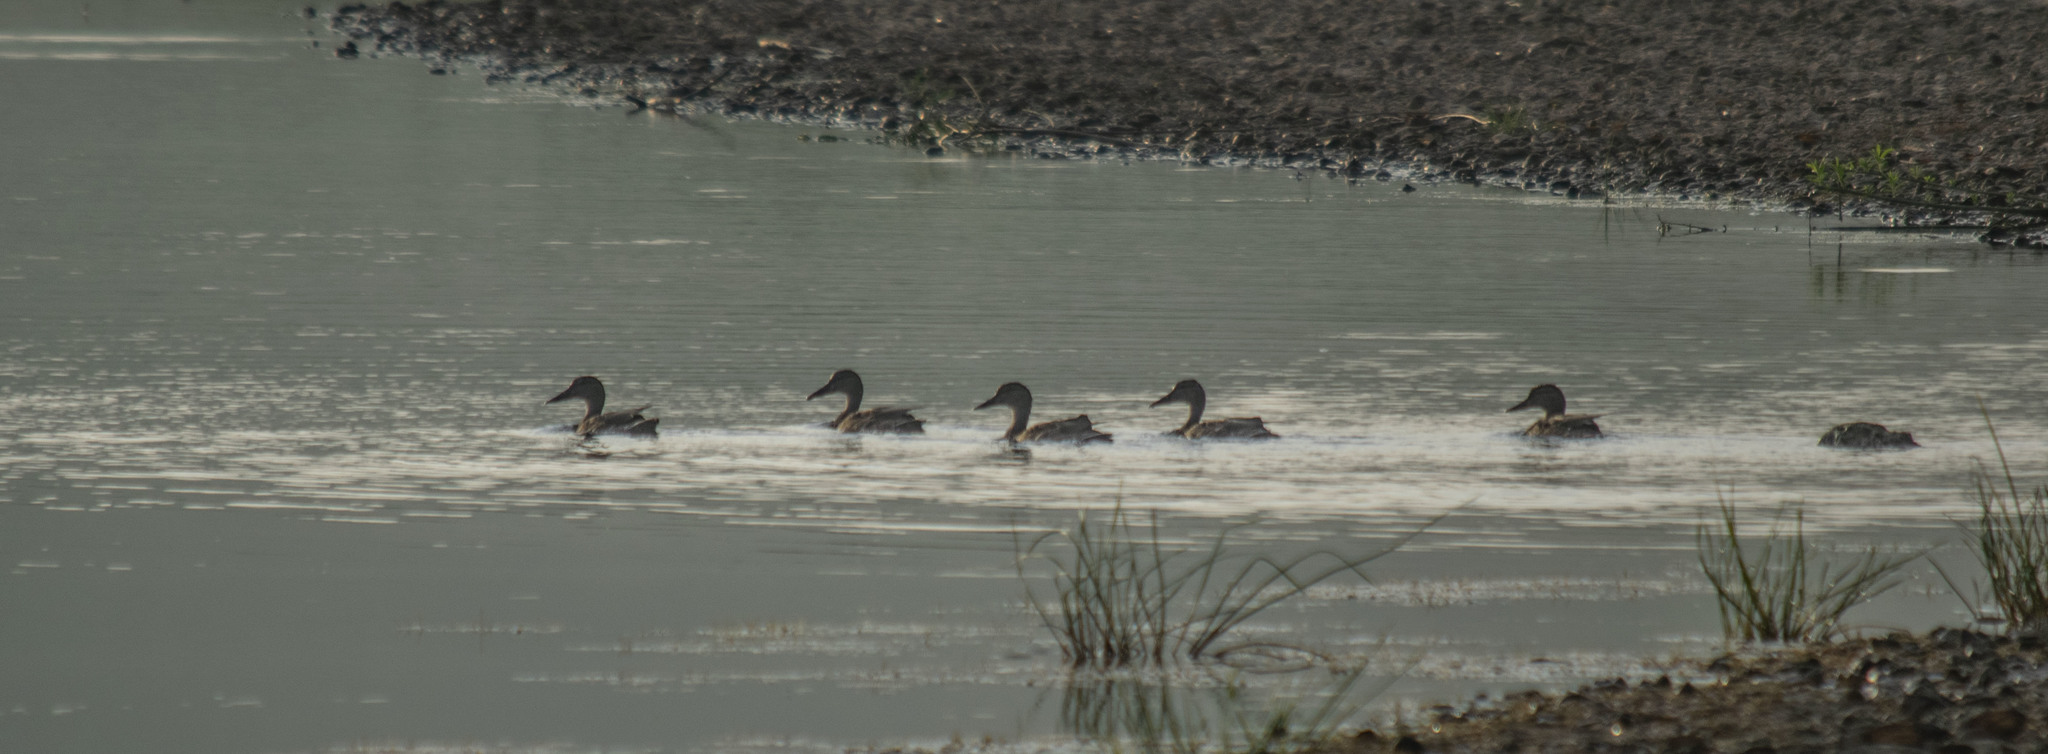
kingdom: Animalia
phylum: Chordata
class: Aves
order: Anseriformes
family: Anatidae
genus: Anas
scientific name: Anas platyrhynchos
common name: Mallard
